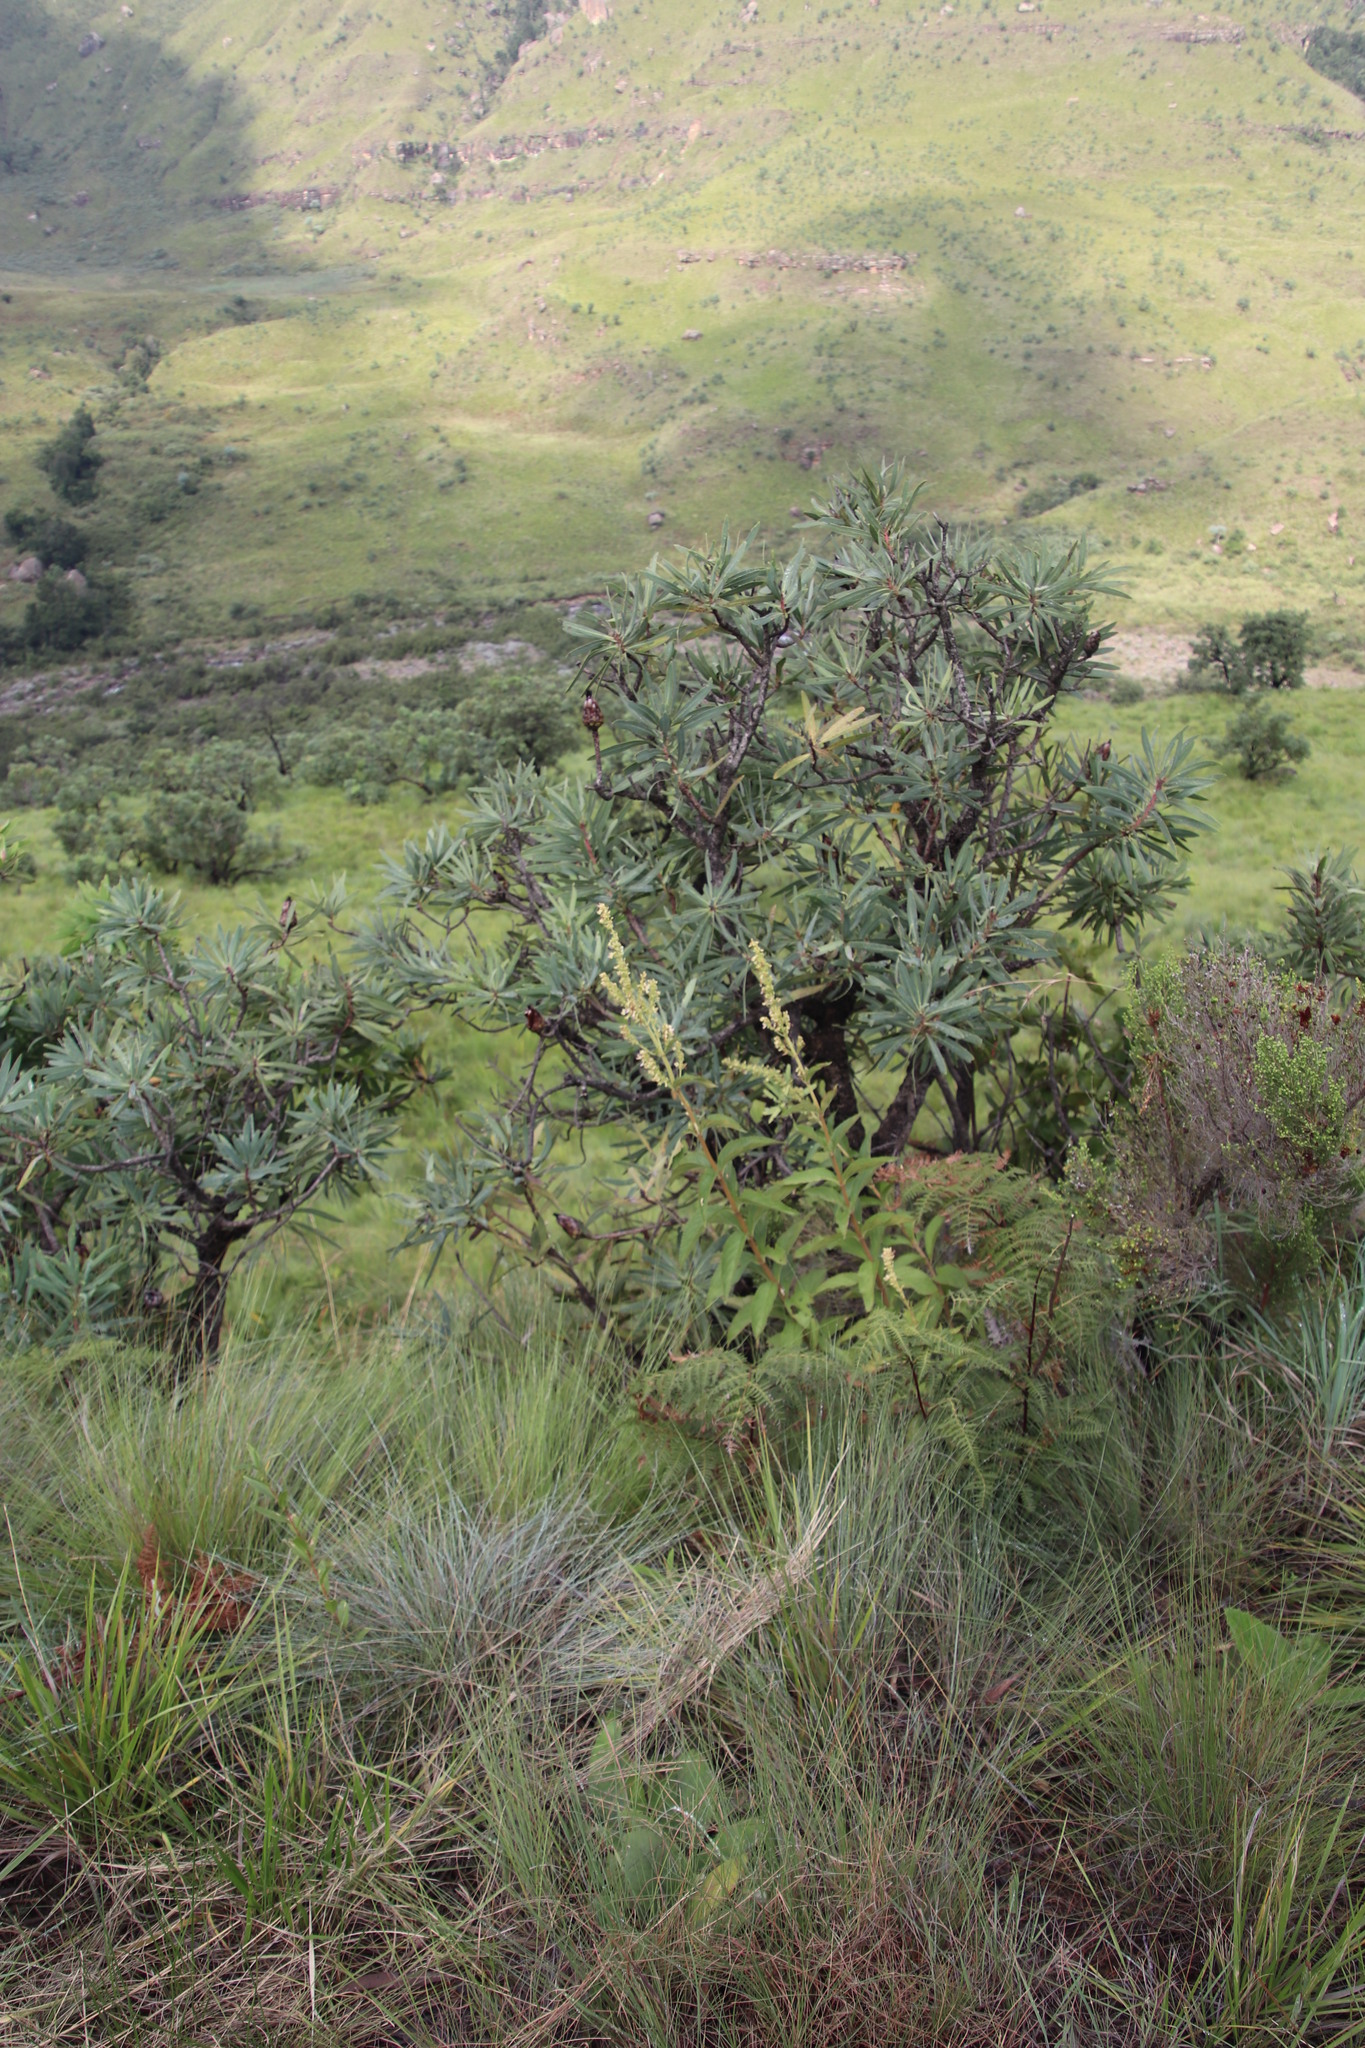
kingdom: Plantae
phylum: Tracheophyta
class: Magnoliopsida
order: Lamiales
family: Lamiaceae
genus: Coleus
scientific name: Coleus calycinus
